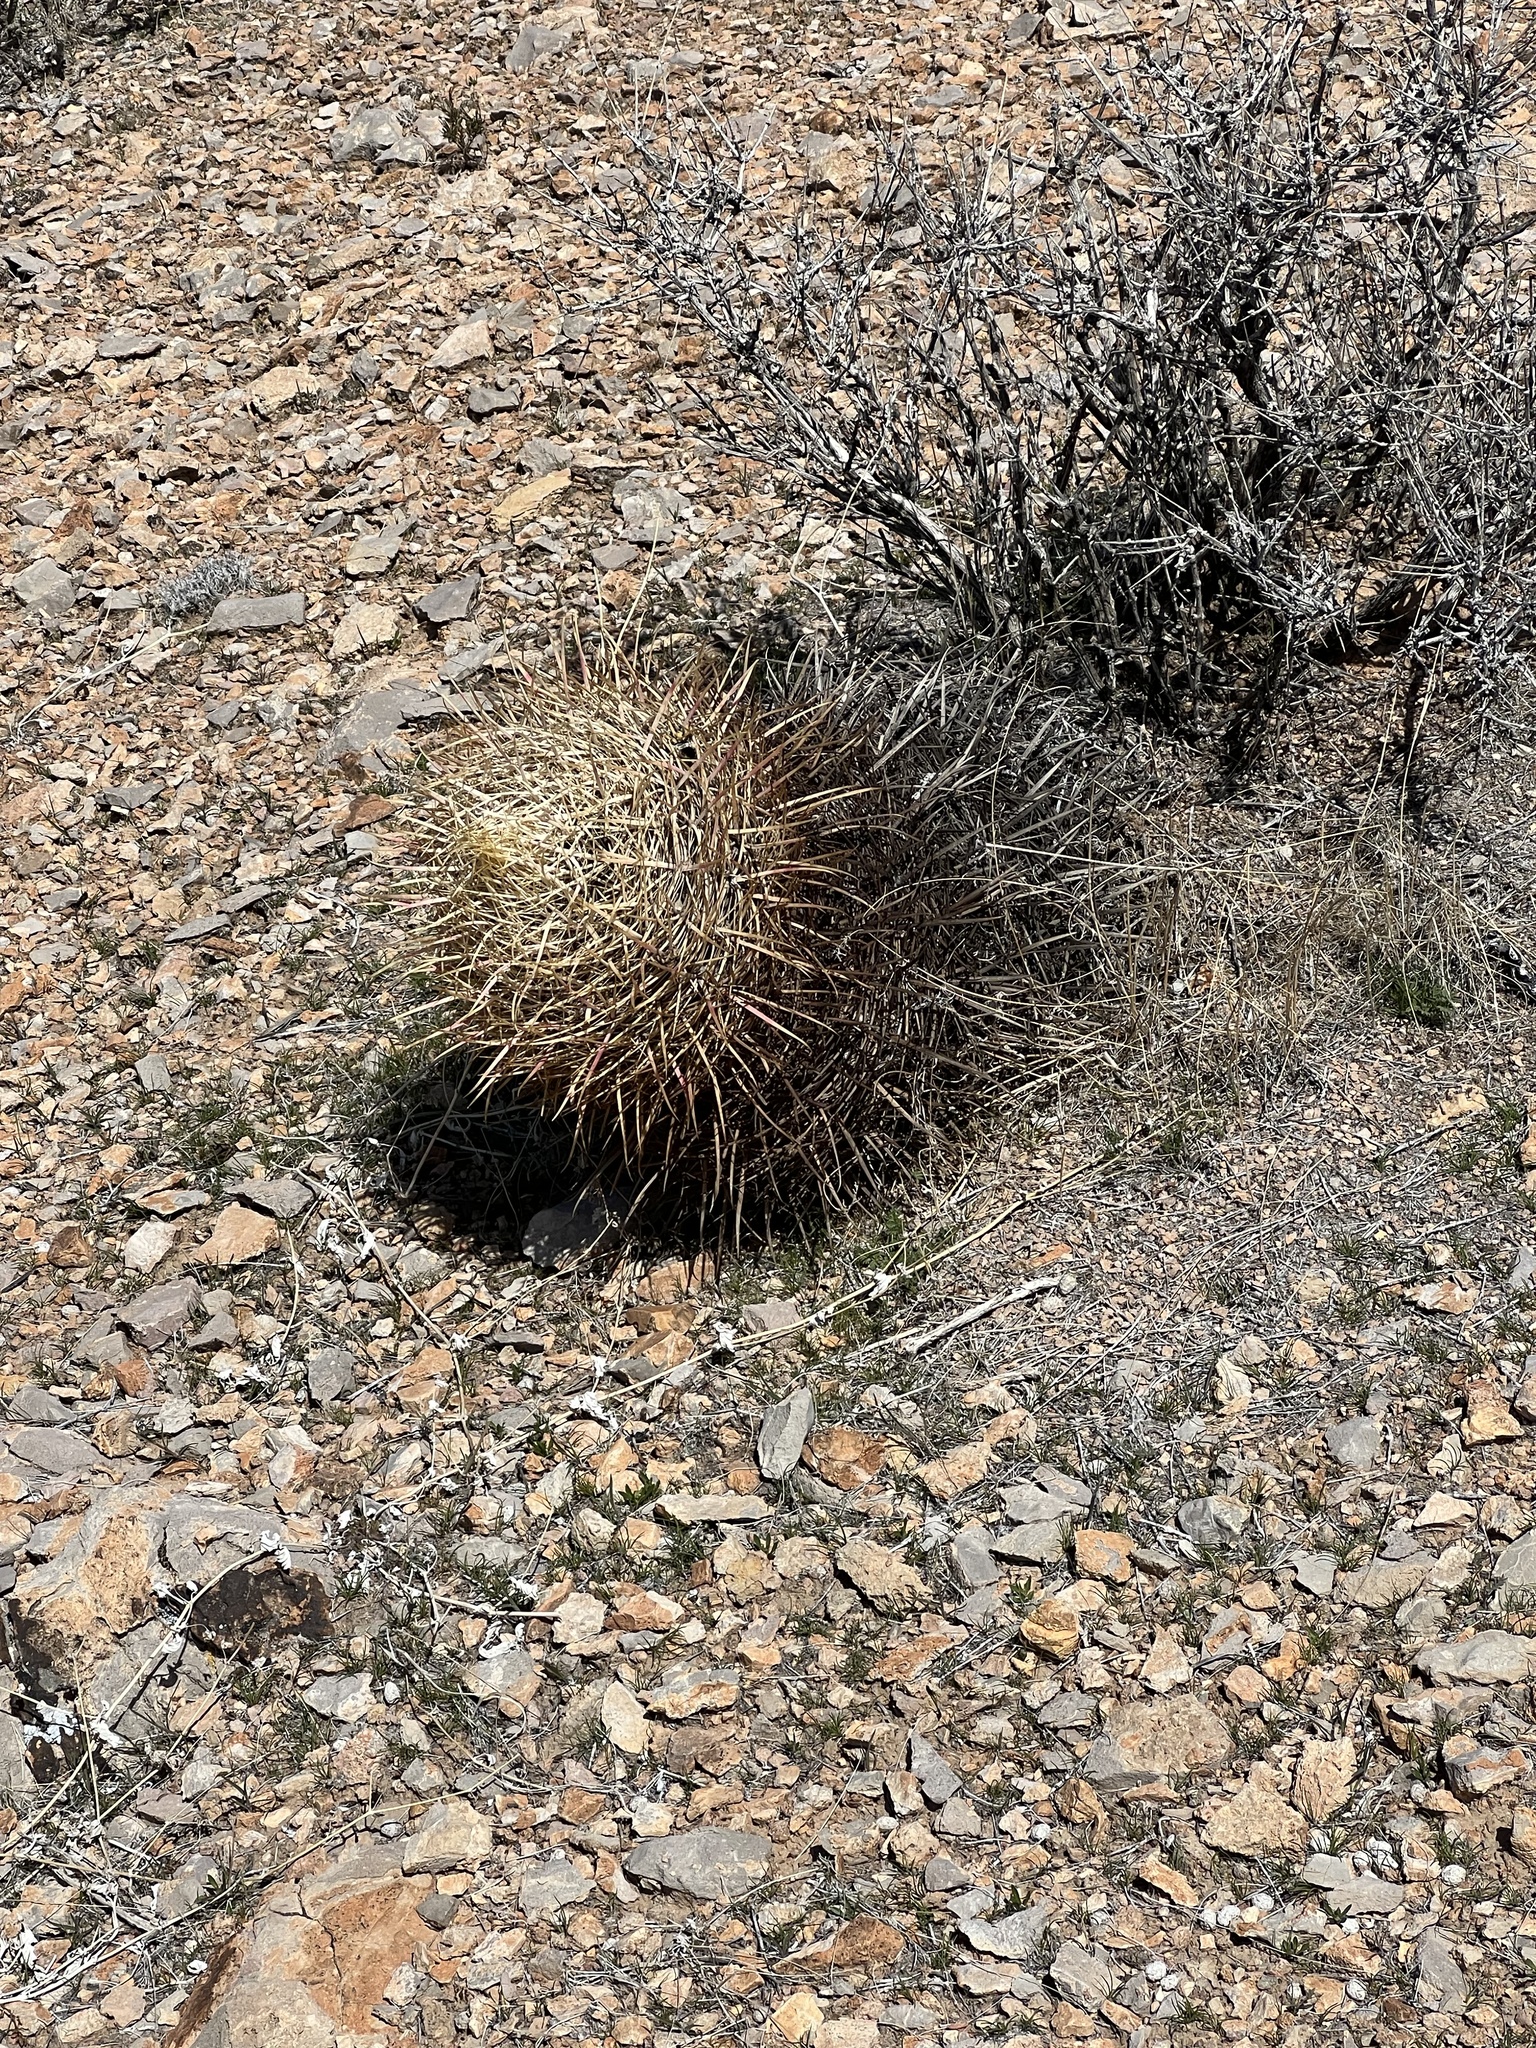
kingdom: Plantae
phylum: Tracheophyta
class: Magnoliopsida
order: Caryophyllales
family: Cactaceae
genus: Ferocactus
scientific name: Ferocactus cylindraceus
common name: California barrel cactus
